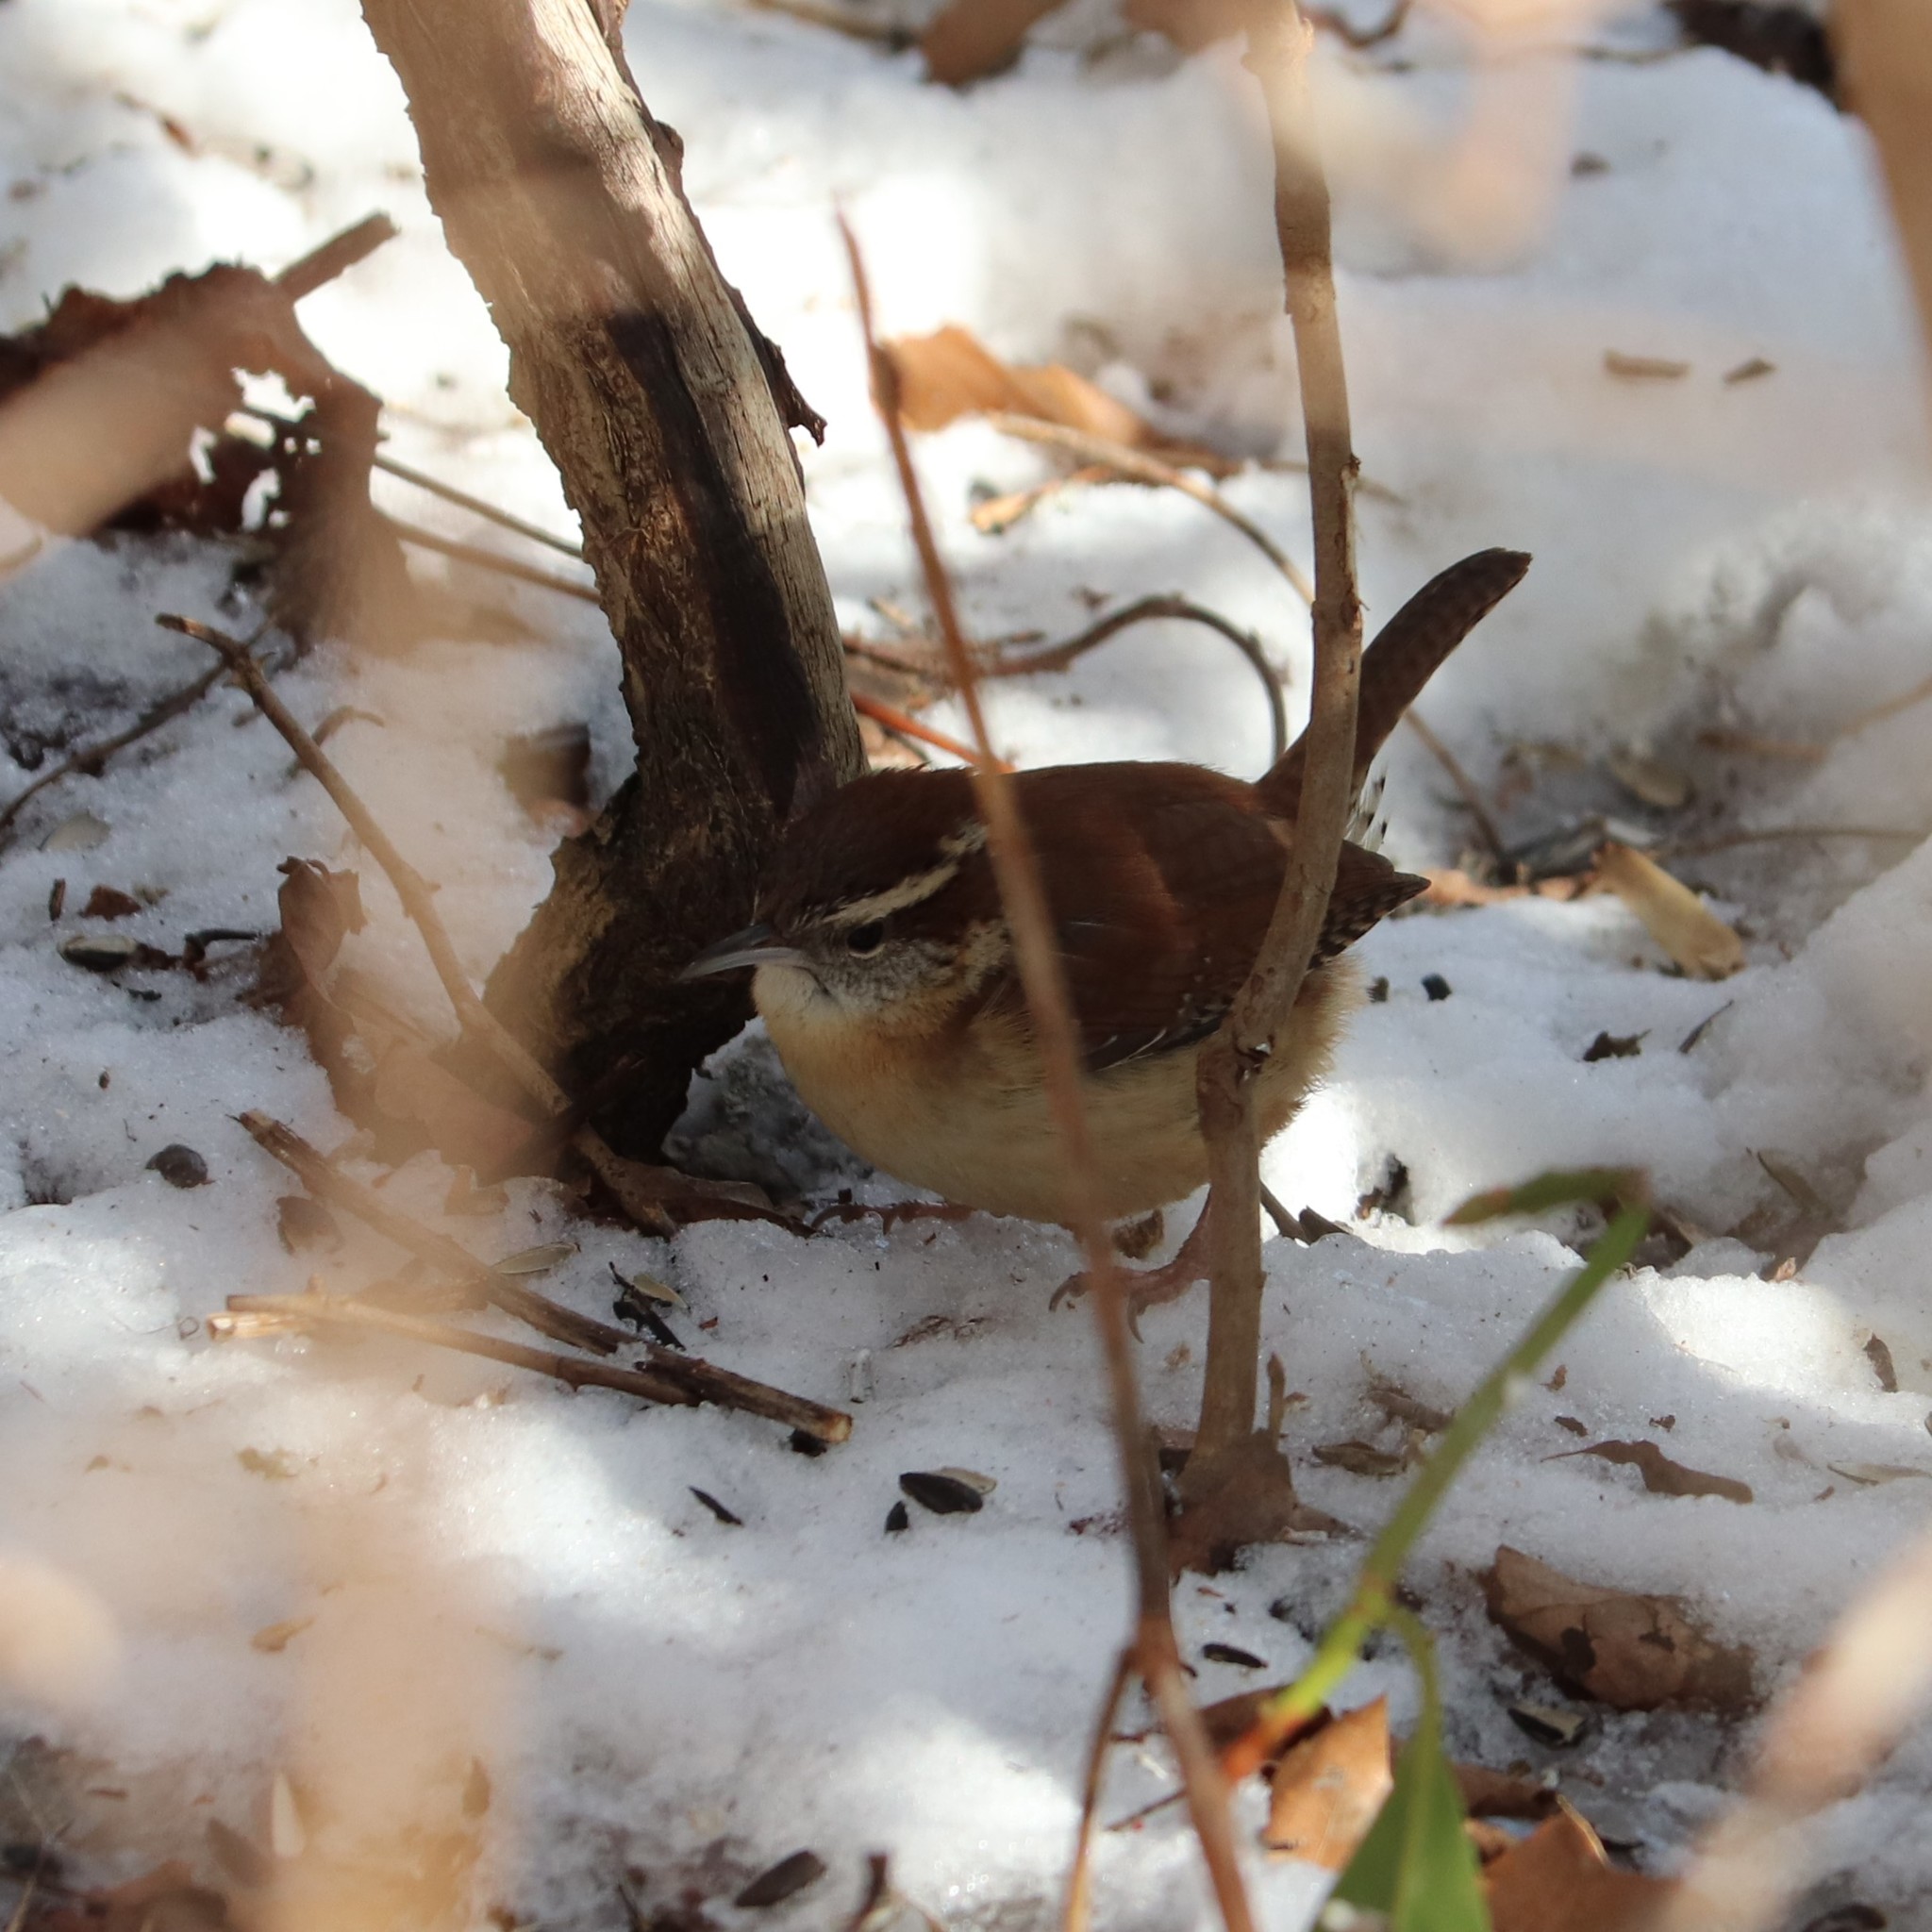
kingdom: Animalia
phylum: Chordata
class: Aves
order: Passeriformes
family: Troglodytidae
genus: Thryothorus
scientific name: Thryothorus ludovicianus
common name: Carolina wren
